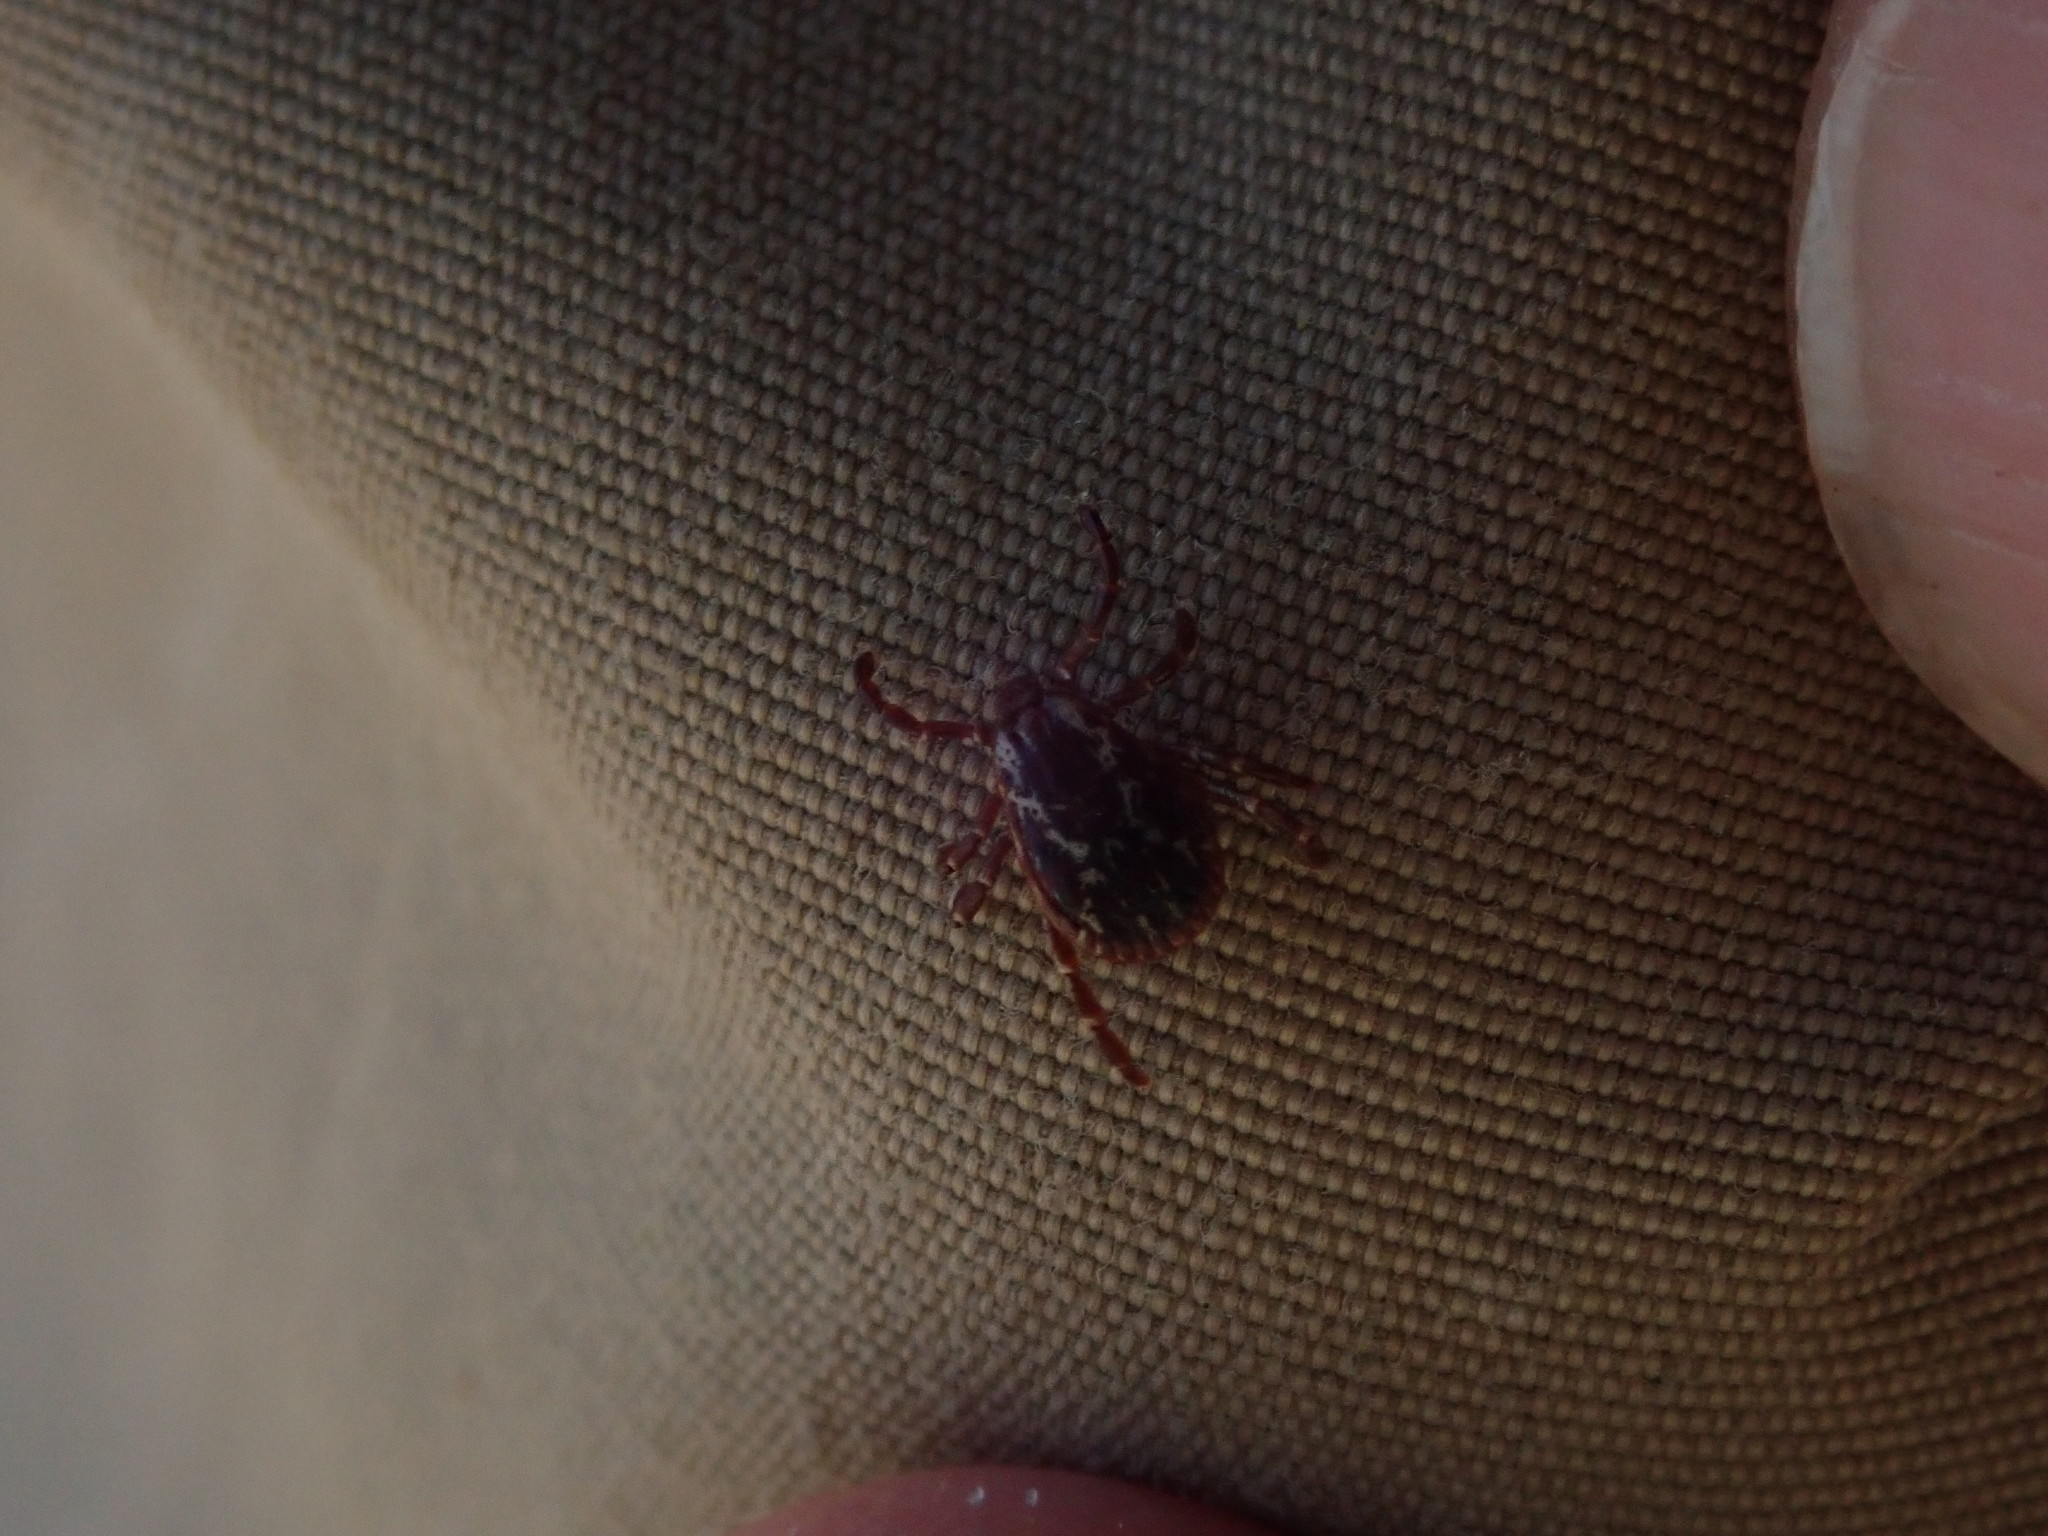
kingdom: Animalia
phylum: Arthropoda
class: Arachnida
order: Ixodida
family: Ixodidae
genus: Dermacentor
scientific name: Dermacentor variabilis
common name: American dog tick
